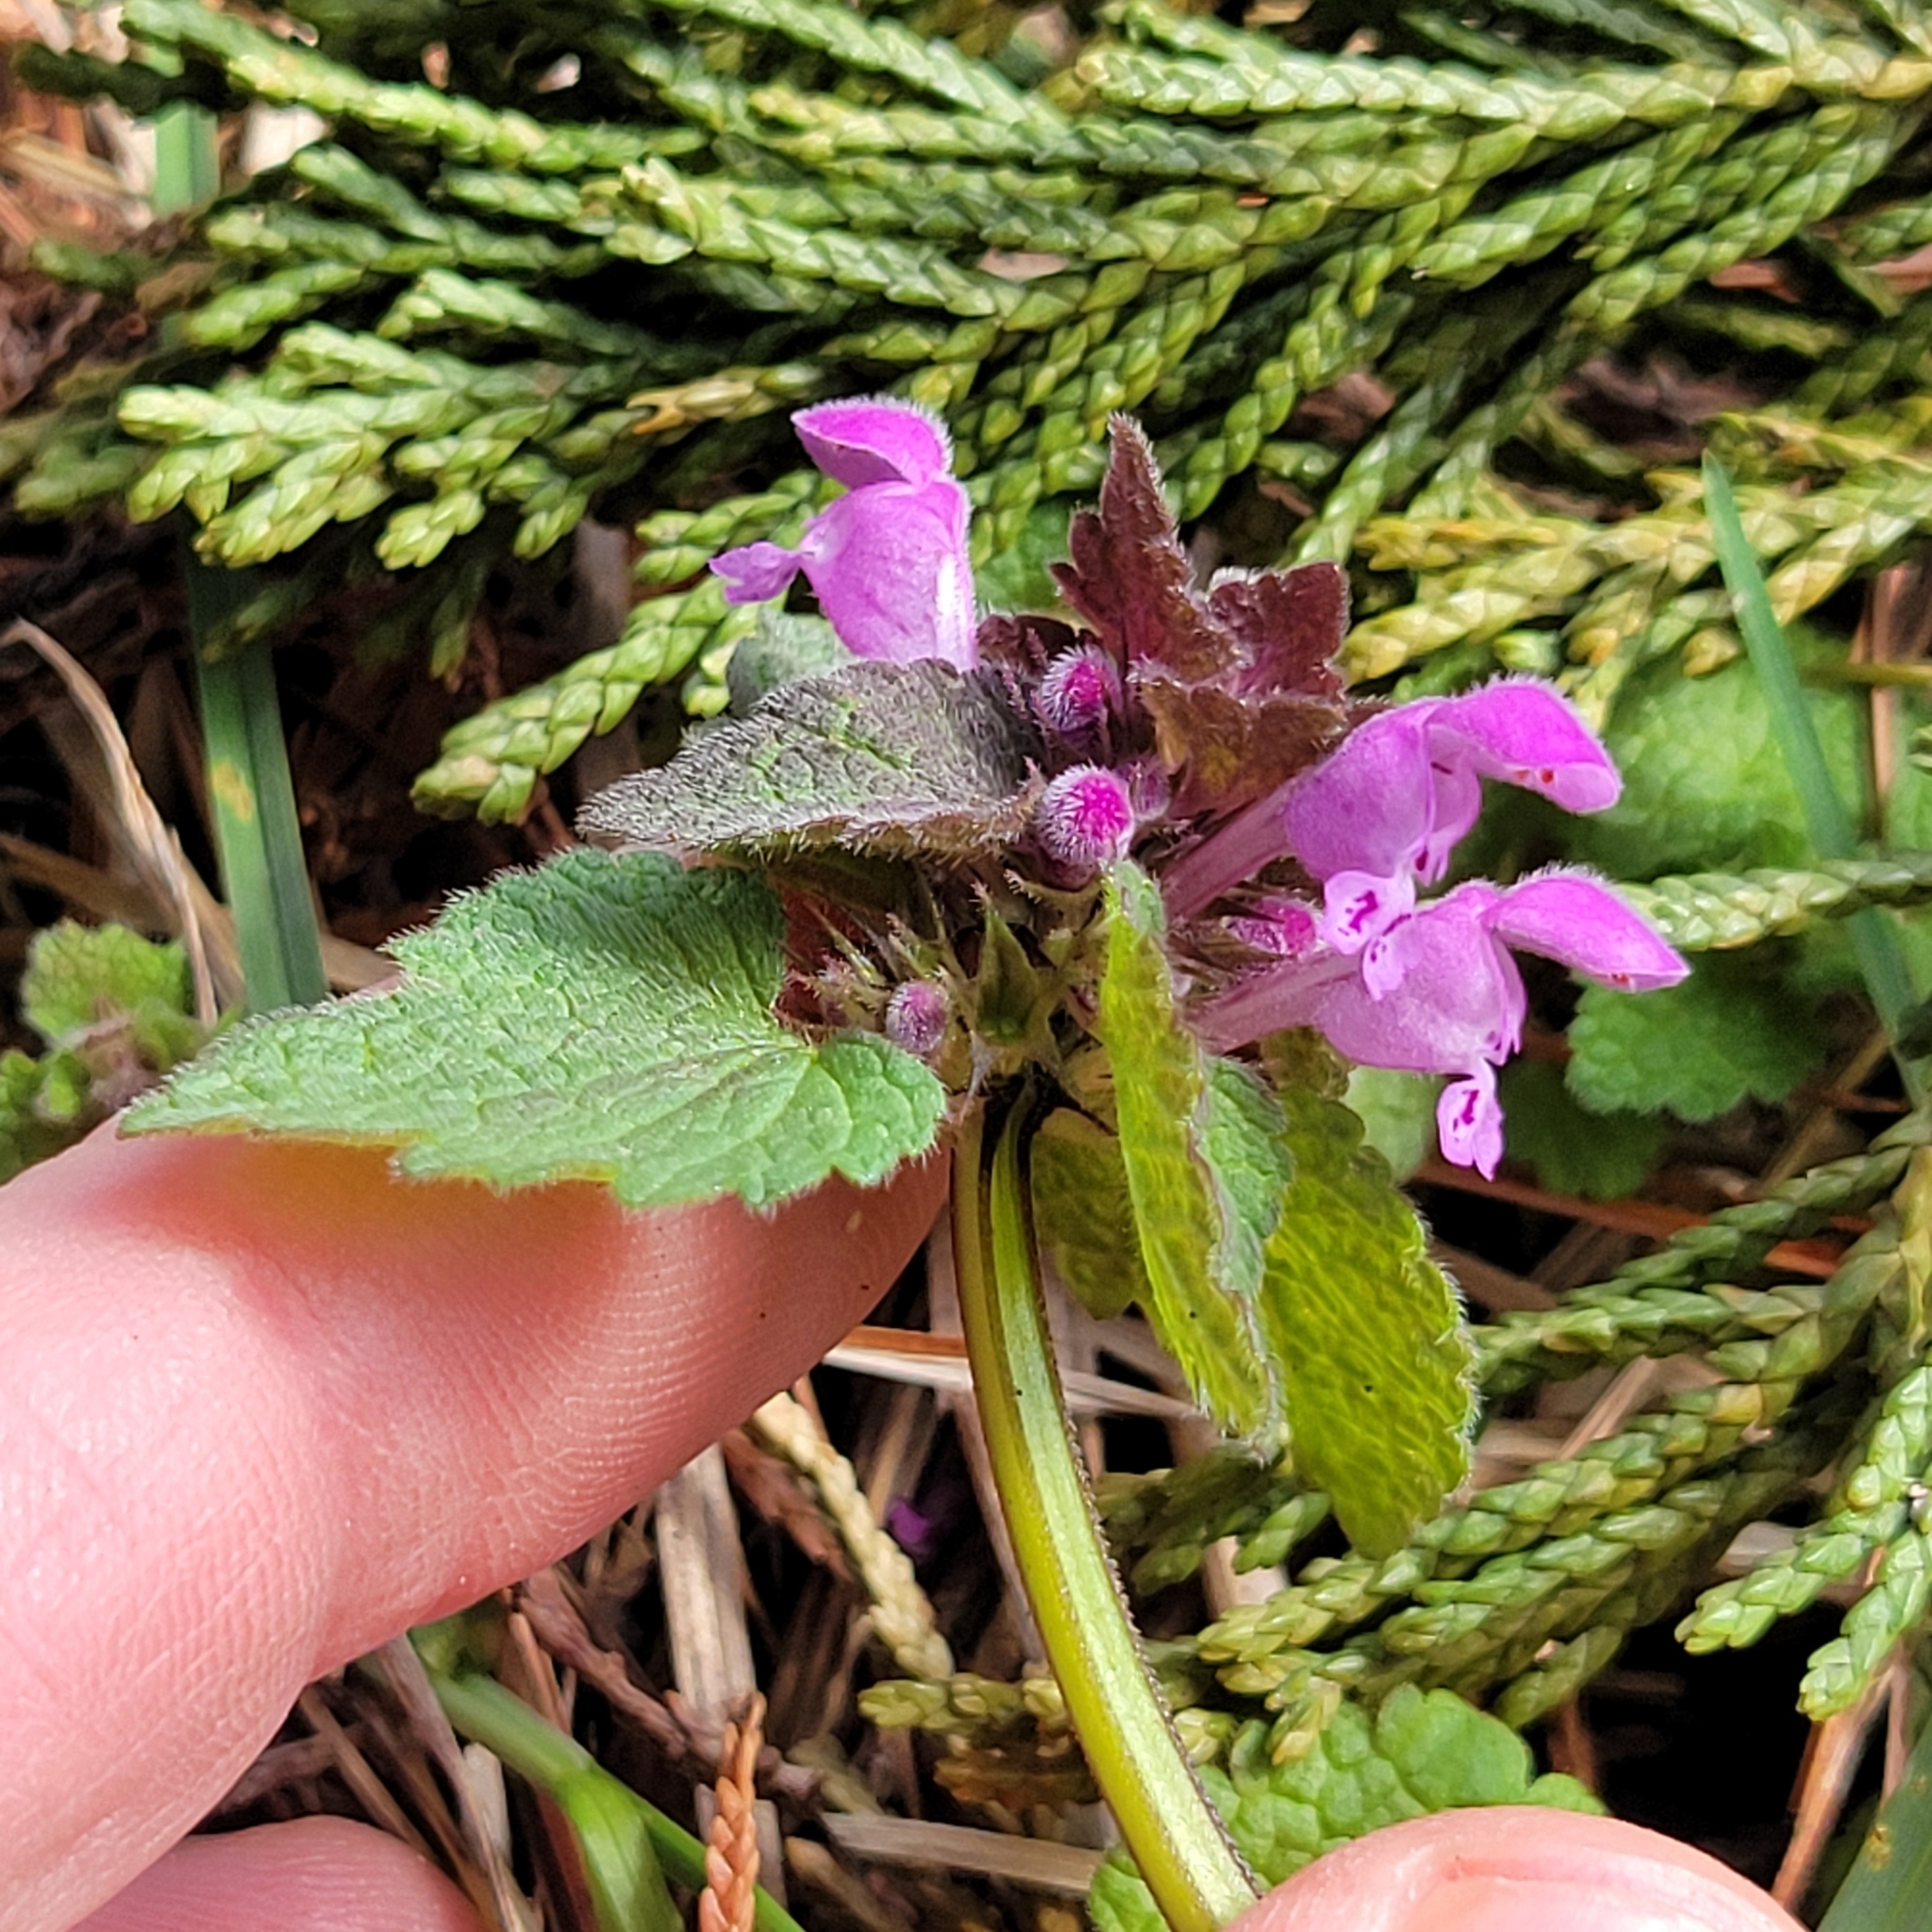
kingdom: Plantae
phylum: Tracheophyta
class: Magnoliopsida
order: Lamiales
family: Lamiaceae
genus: Lamium
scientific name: Lamium purpureum
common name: Red dead-nettle
